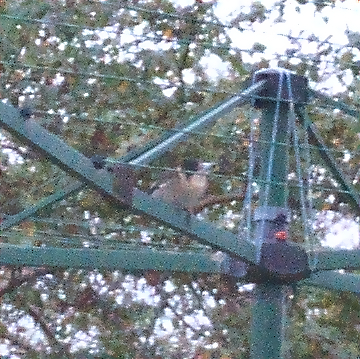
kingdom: Animalia
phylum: Chordata
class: Aves
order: Passeriformes
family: Cracticidae
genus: Cracticus
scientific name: Cracticus torquatus
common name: Grey butcherbird
